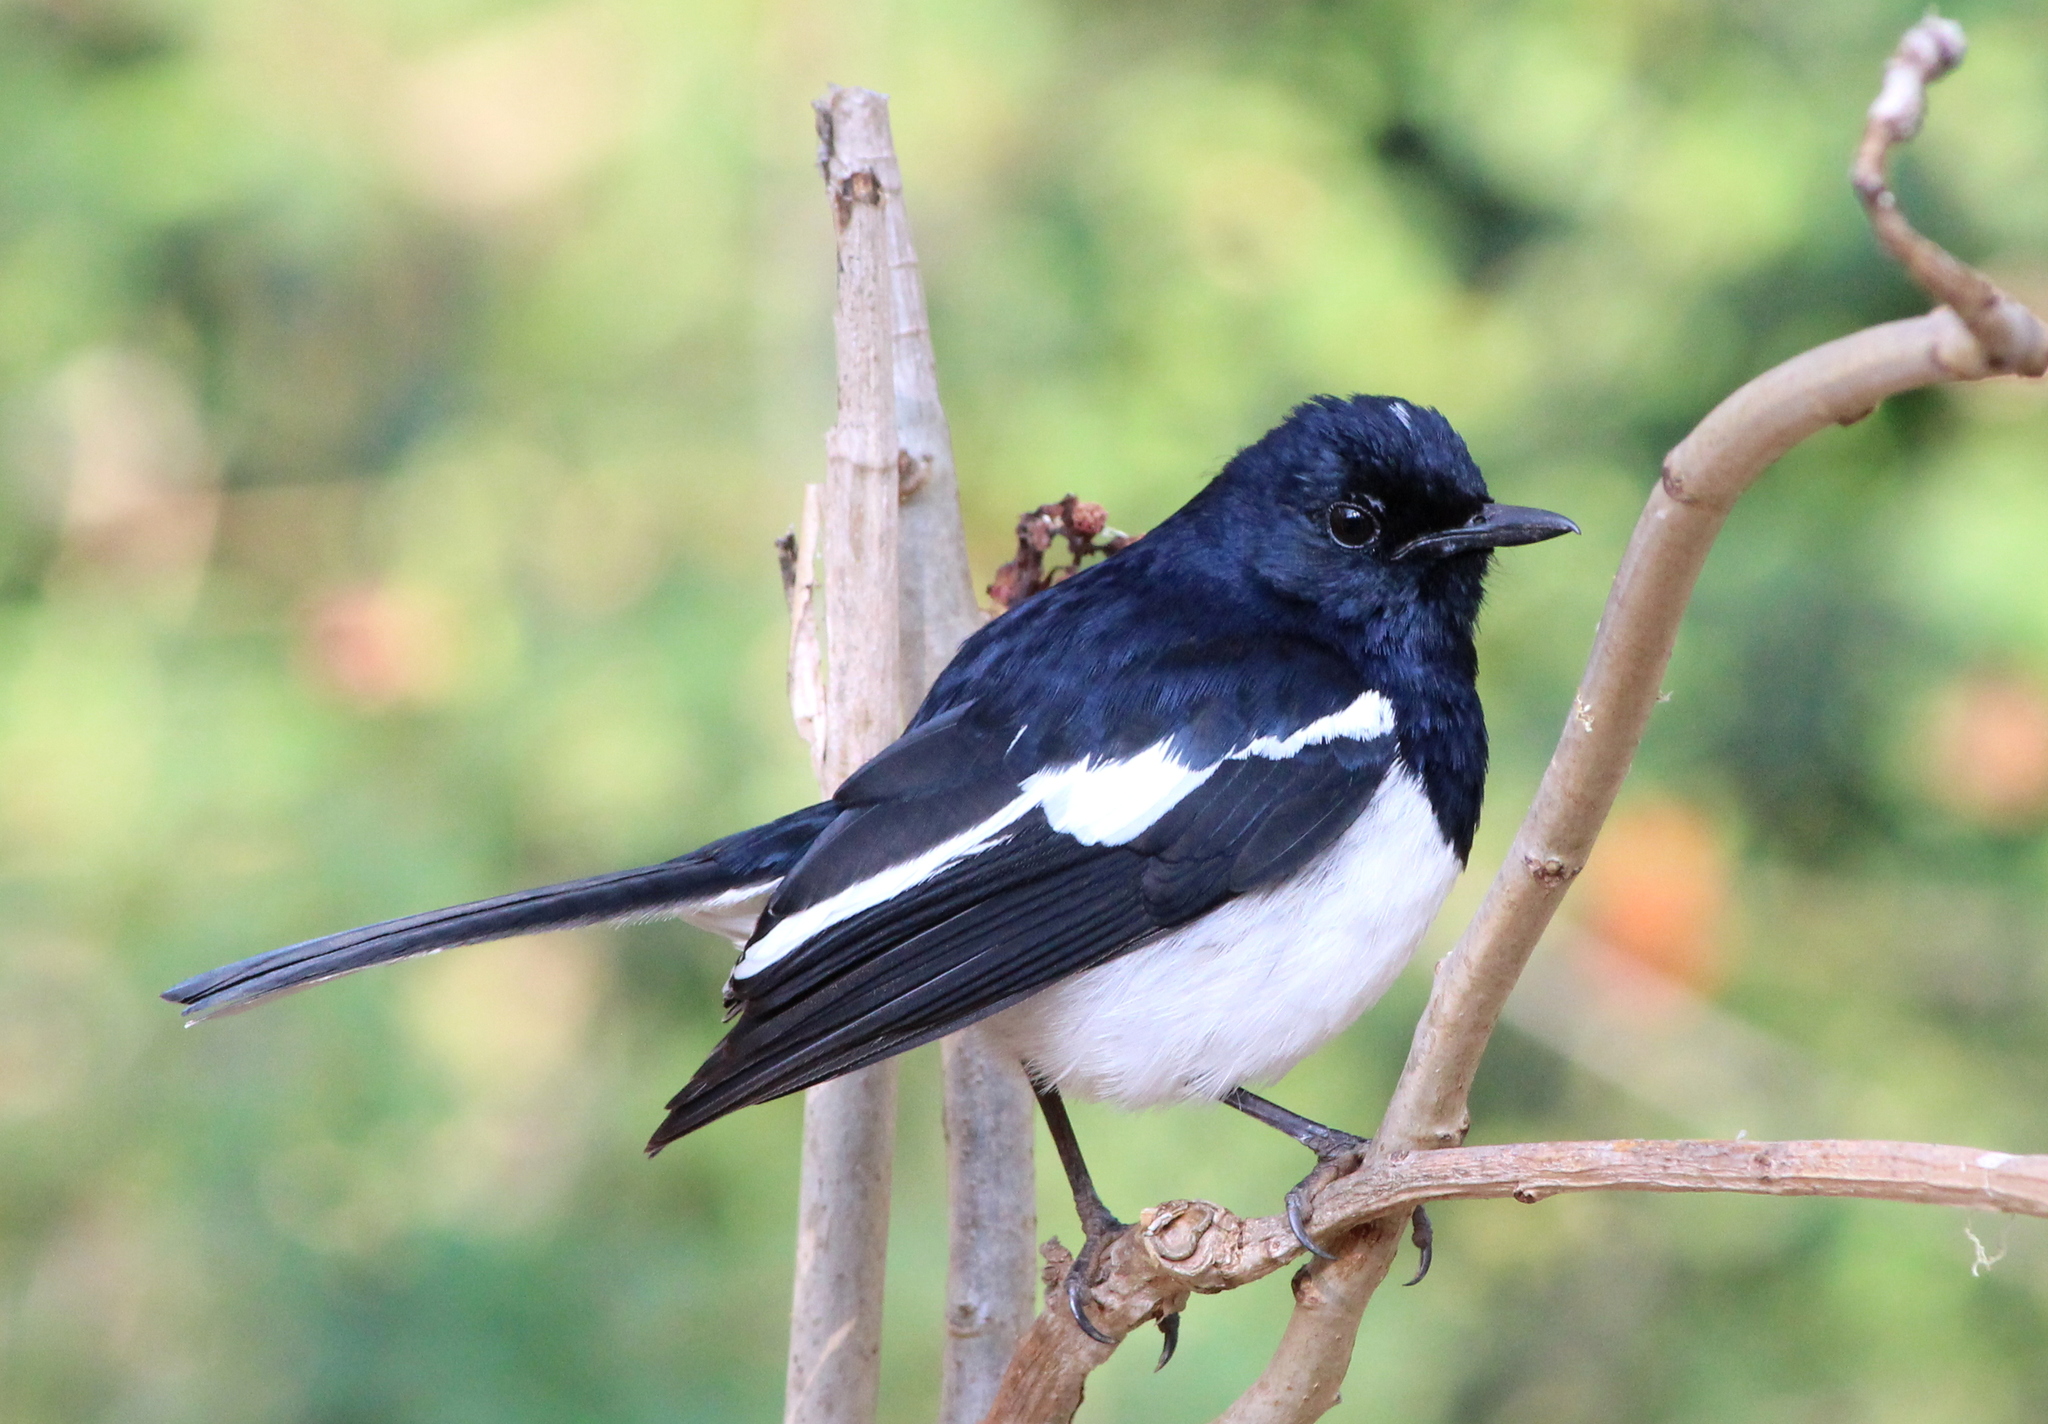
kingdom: Animalia
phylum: Chordata
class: Aves
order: Passeriformes
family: Muscicapidae
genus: Copsychus
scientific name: Copsychus saularis
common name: Oriental magpie-robin
